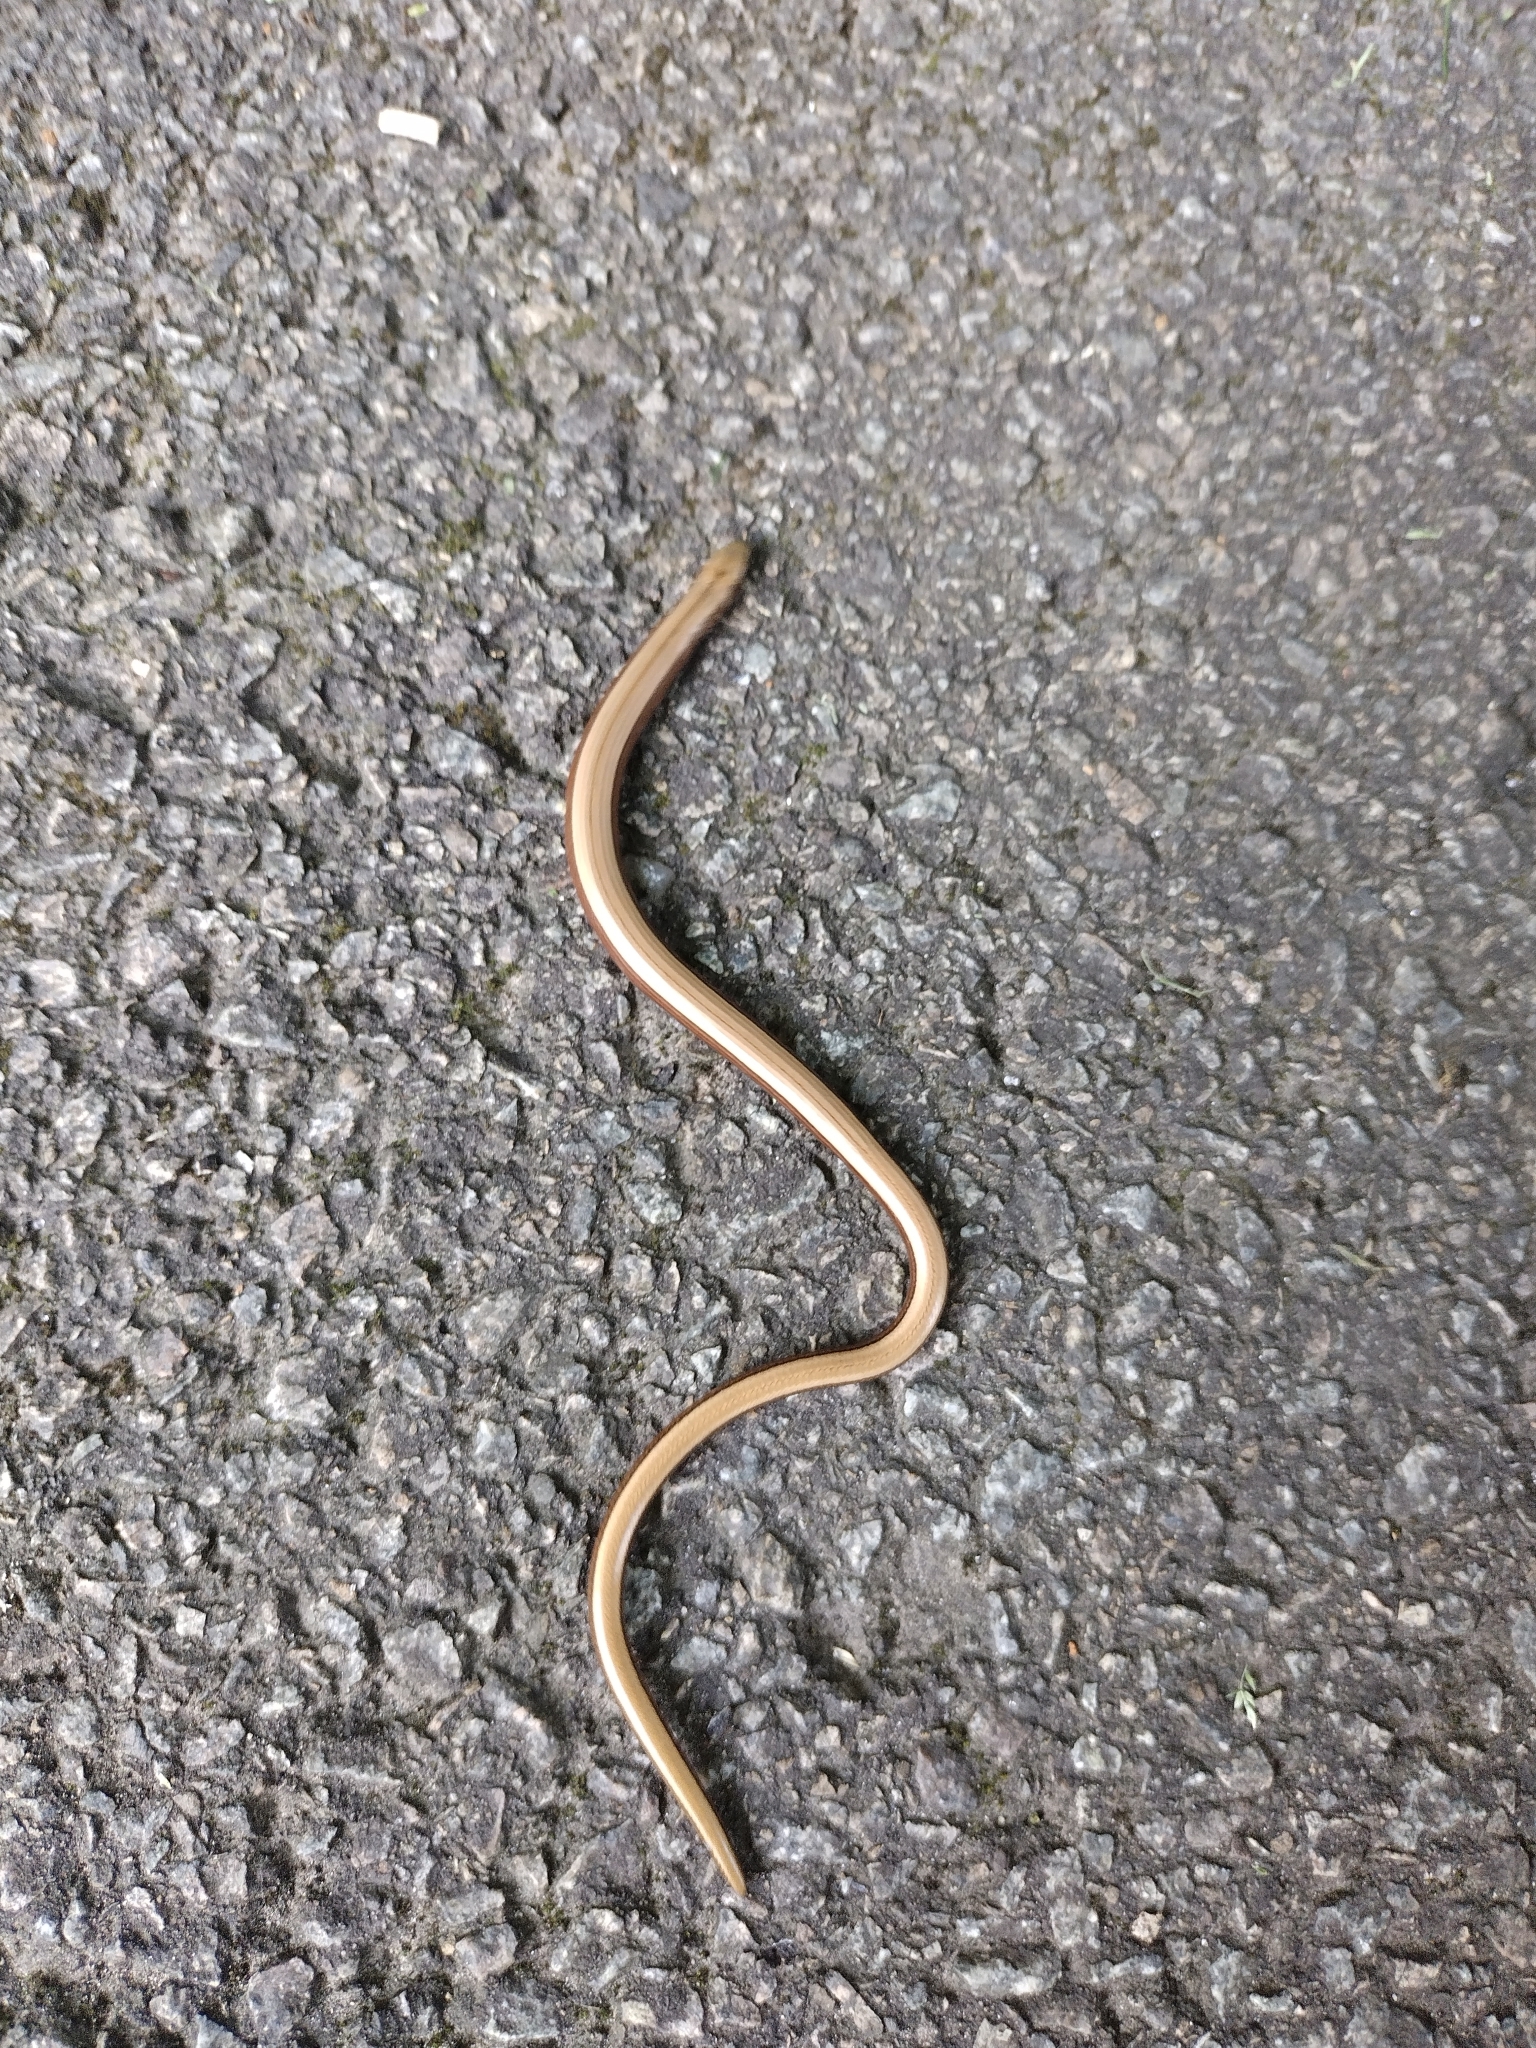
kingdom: Animalia
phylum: Chordata
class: Squamata
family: Anguidae
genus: Anguis
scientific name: Anguis fragilis
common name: Slow worm
